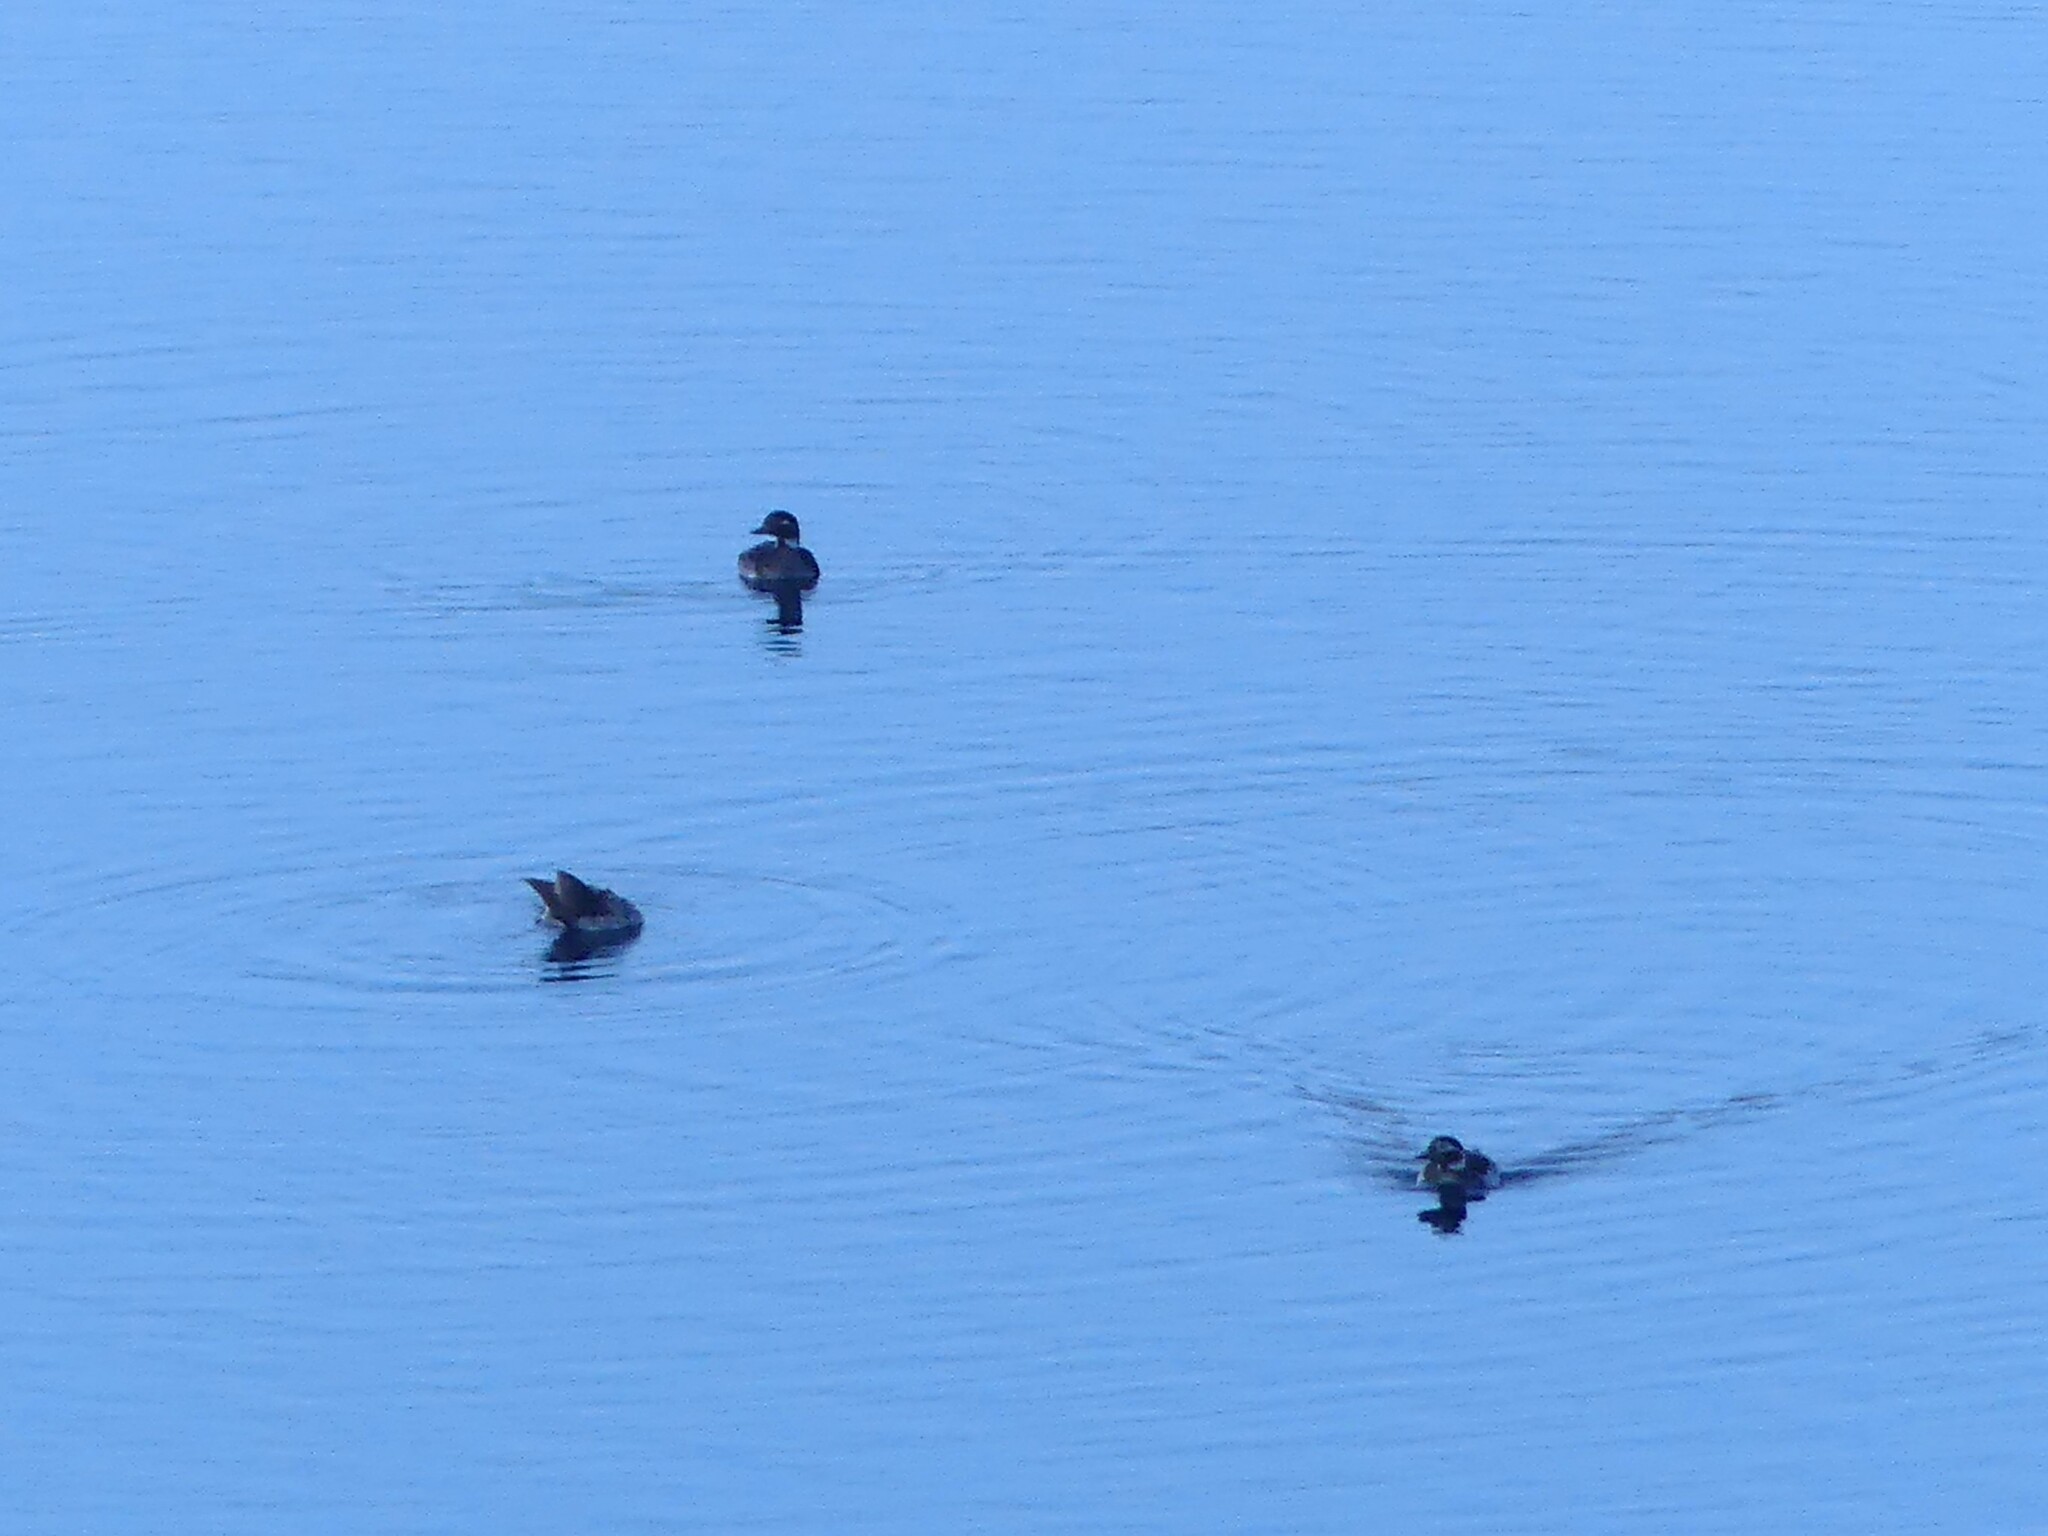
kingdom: Animalia
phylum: Chordata
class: Aves
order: Anseriformes
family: Anatidae
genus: Clangula
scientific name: Clangula hyemalis
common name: Long-tailed duck
